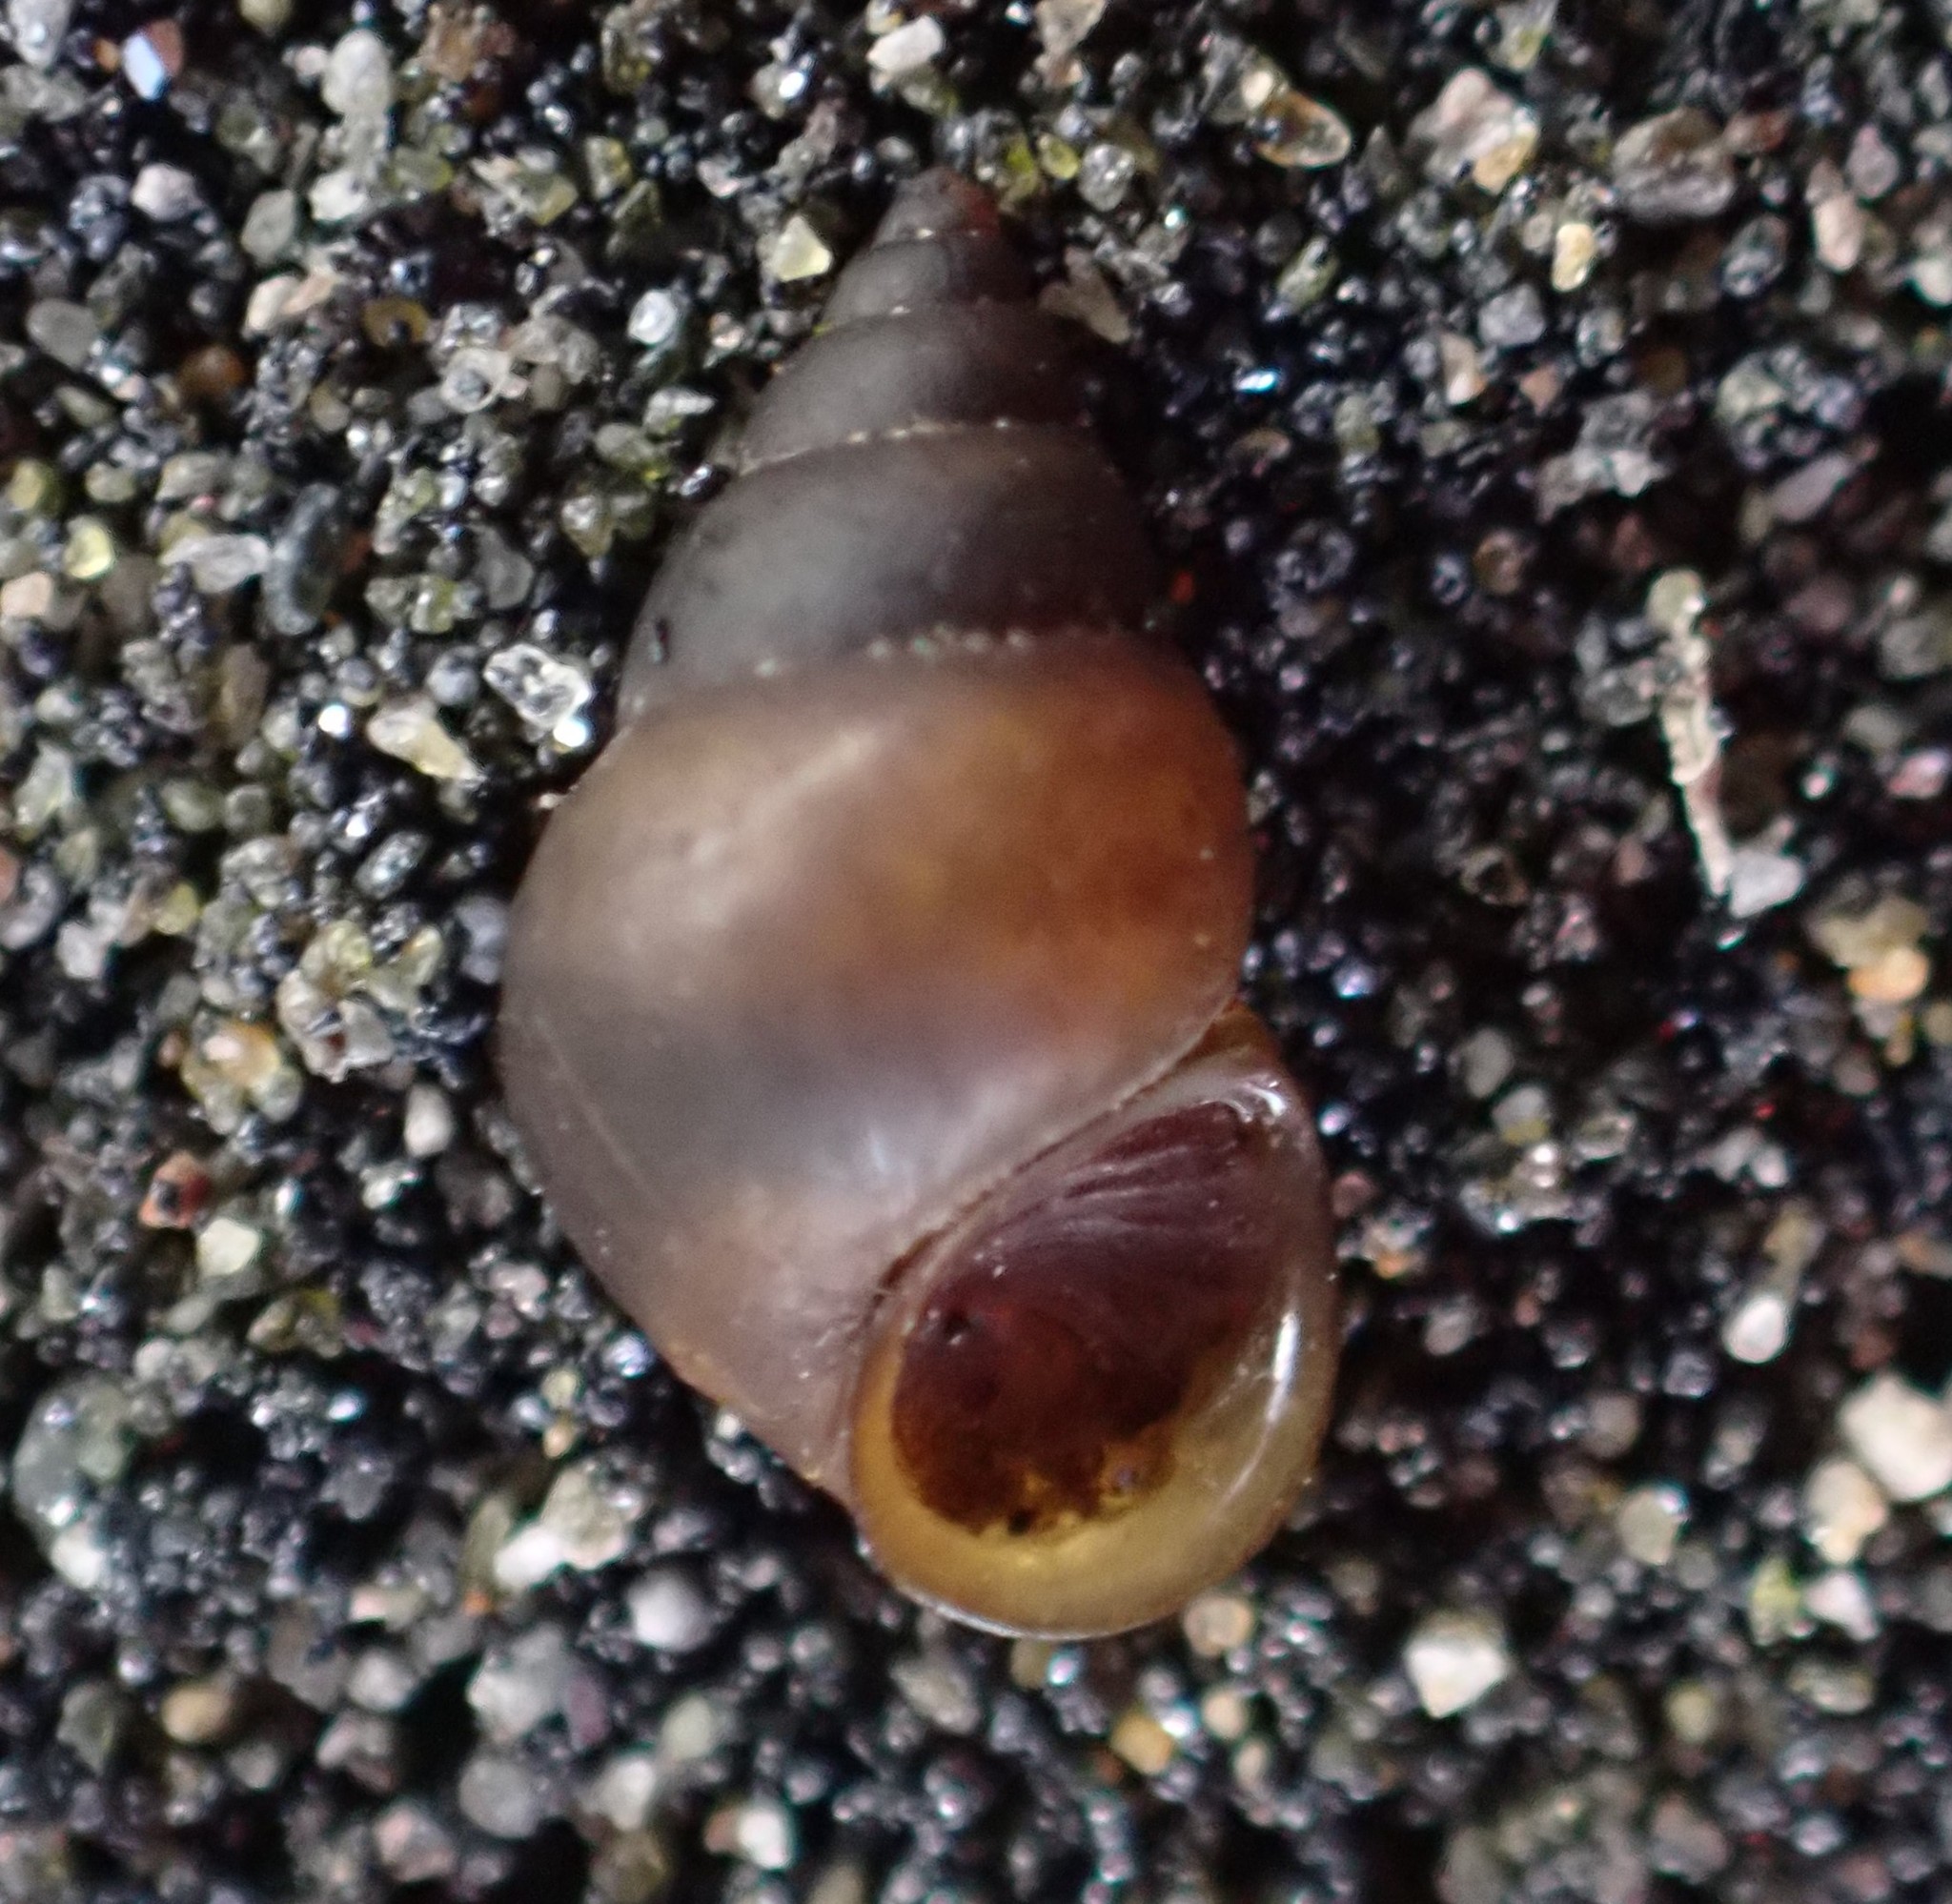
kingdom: Animalia
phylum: Mollusca
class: Gastropoda
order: Littorinimorpha
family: Tateidae
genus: Potamopyrgus
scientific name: Potamopyrgus antipodarum
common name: Jenkins' spire snail
